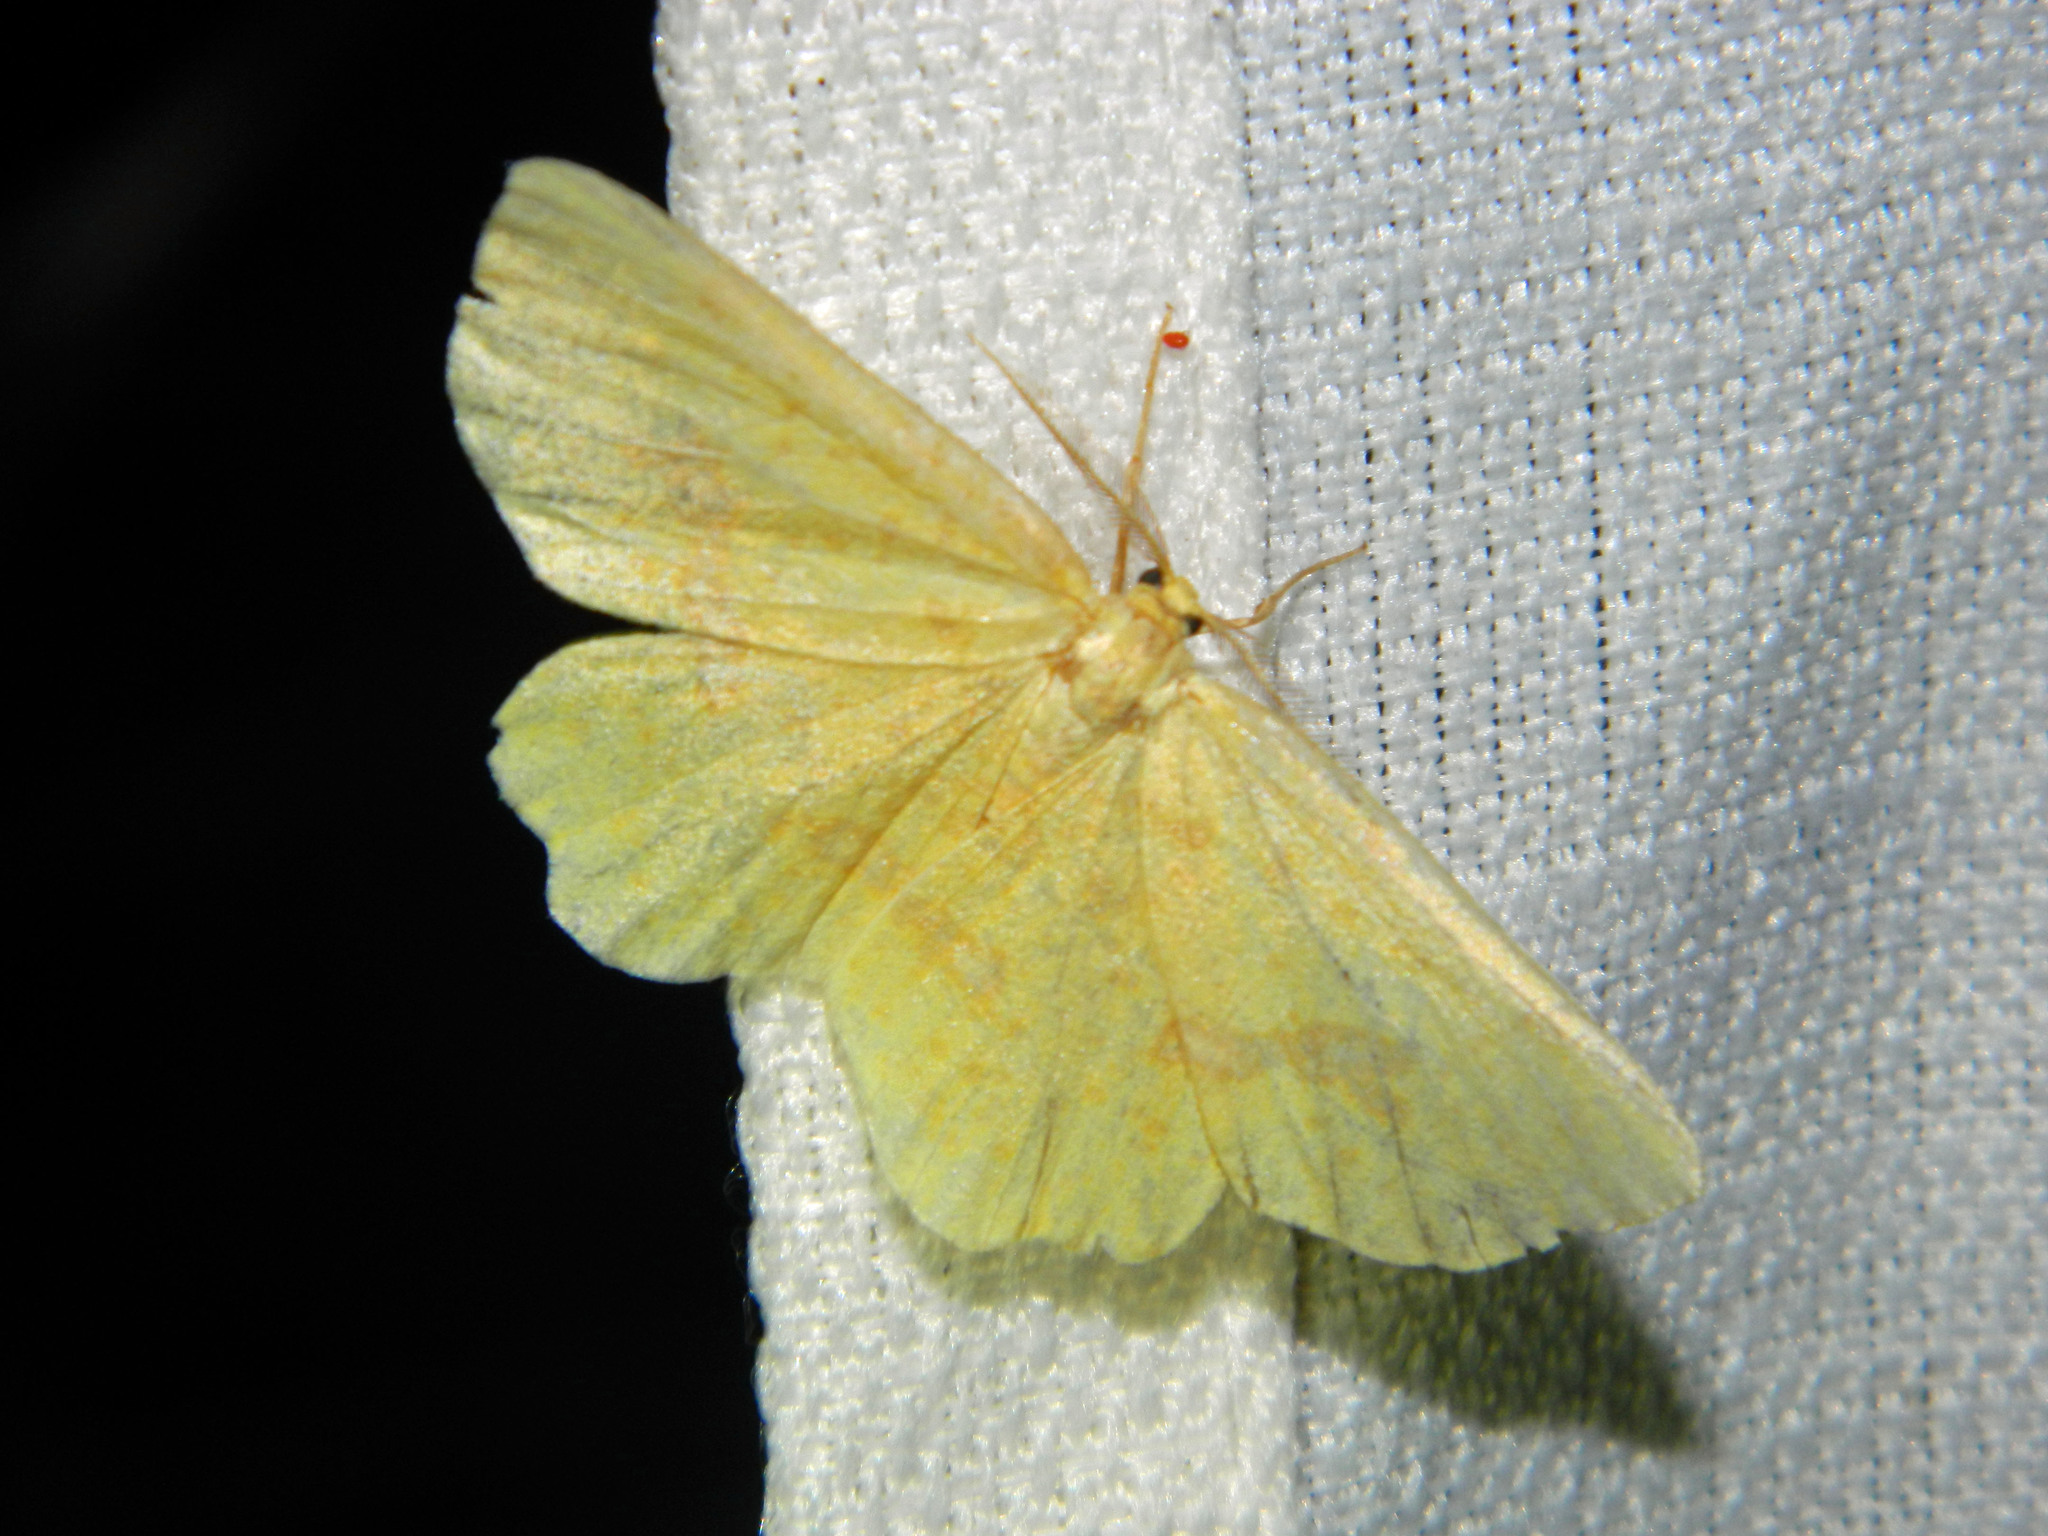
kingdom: Animalia
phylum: Arthropoda
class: Insecta
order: Lepidoptera
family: Geometridae
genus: Xanthotype
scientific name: Xanthotype
